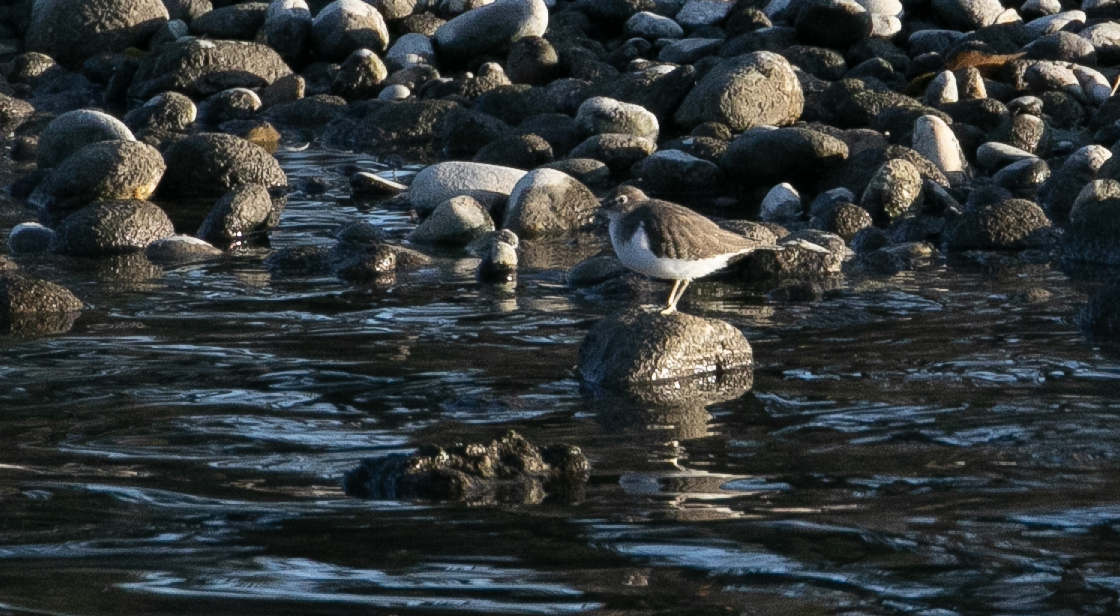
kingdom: Animalia
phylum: Chordata
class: Aves
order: Charadriiformes
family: Scolopacidae
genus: Actitis
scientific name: Actitis hypoleucos
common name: Common sandpiper
